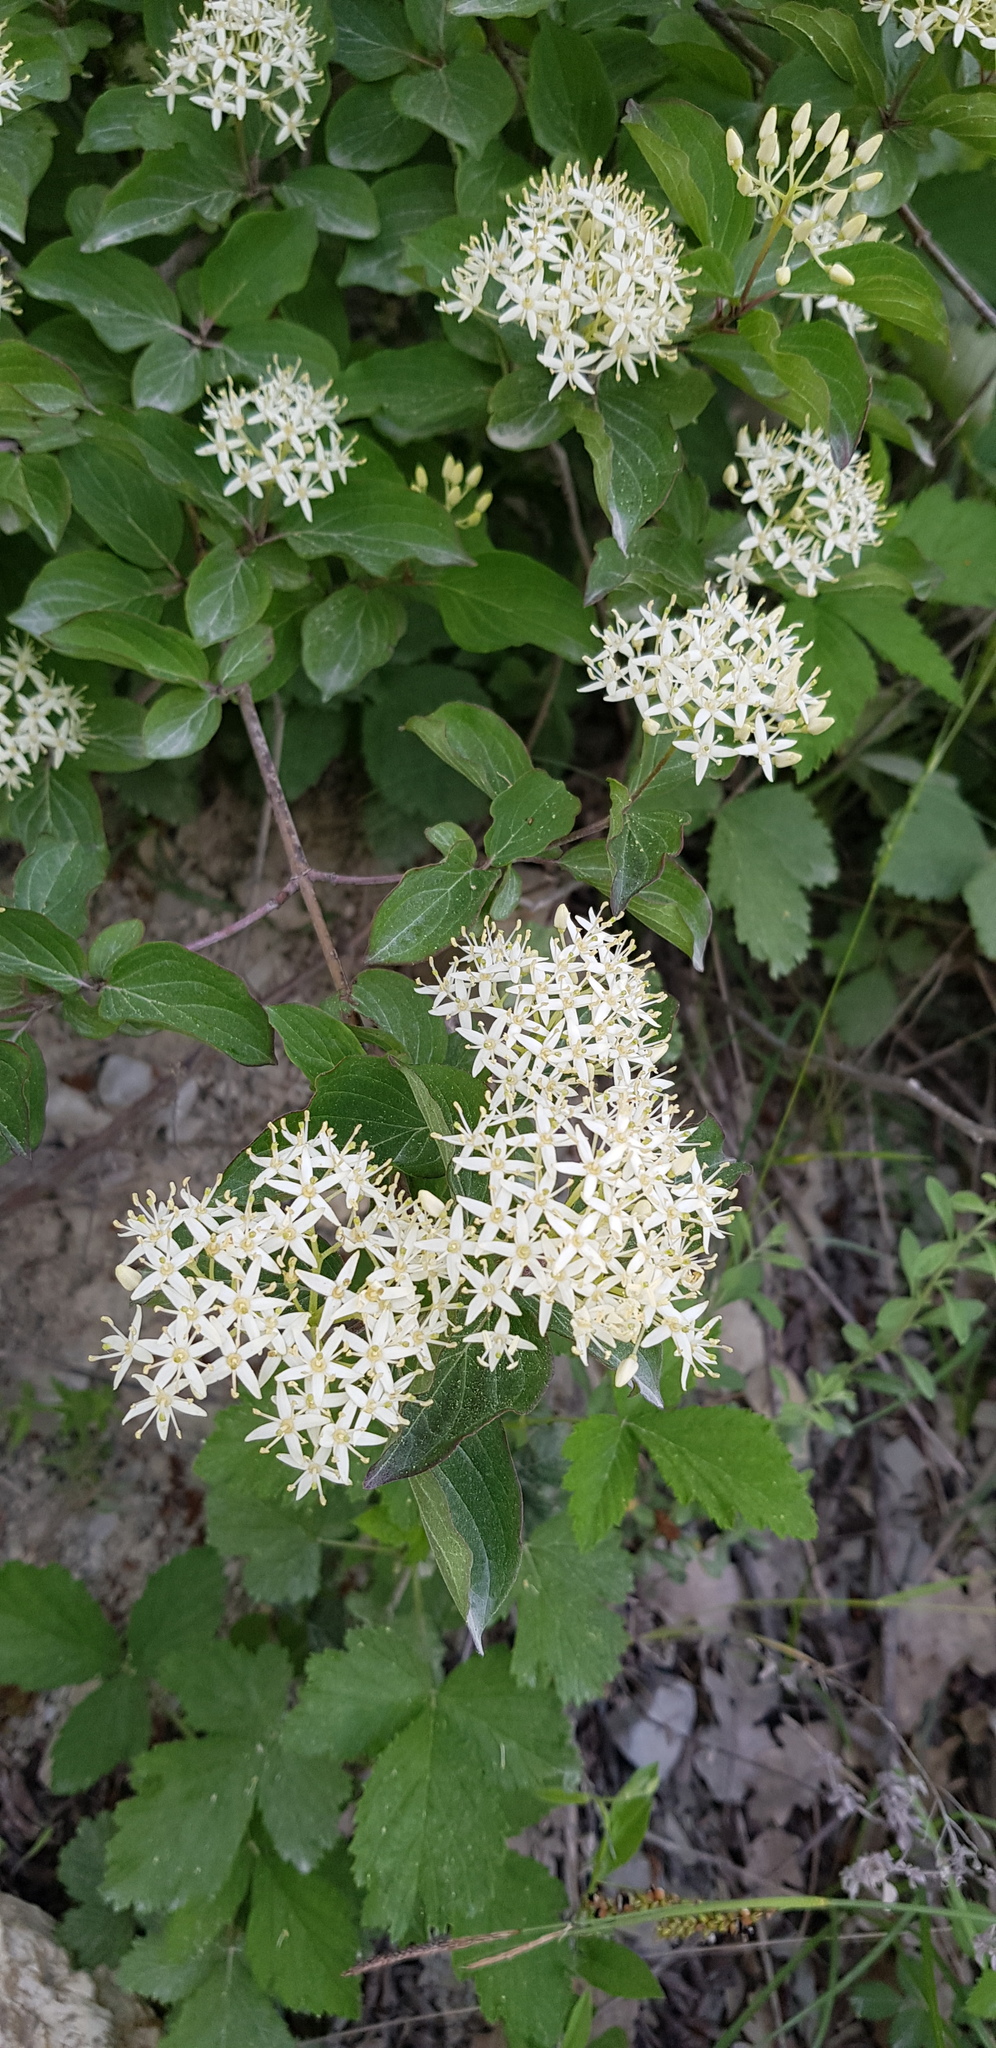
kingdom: Plantae
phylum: Tracheophyta
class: Magnoliopsida
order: Cornales
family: Cornaceae
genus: Cornus
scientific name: Cornus sanguinea
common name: Dogwood
